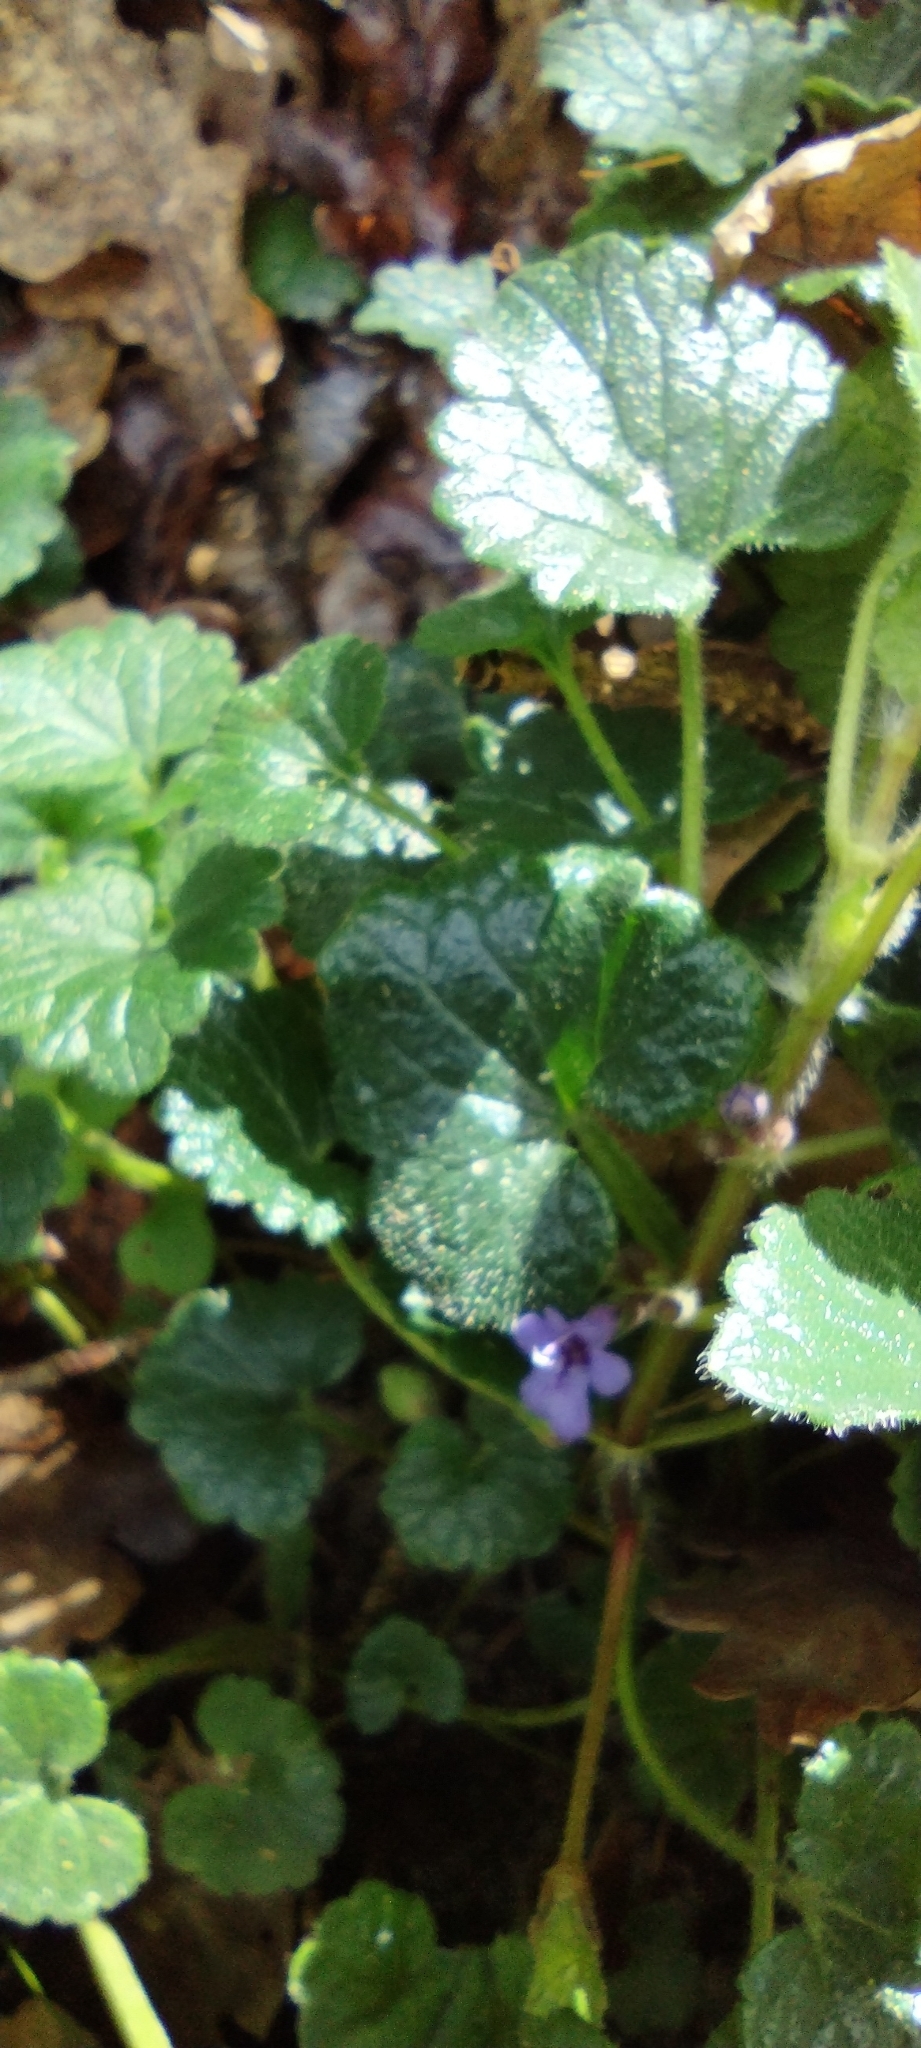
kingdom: Plantae
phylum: Tracheophyta
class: Magnoliopsida
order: Lamiales
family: Lamiaceae
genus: Glechoma
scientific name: Glechoma hederacea
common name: Ground ivy
